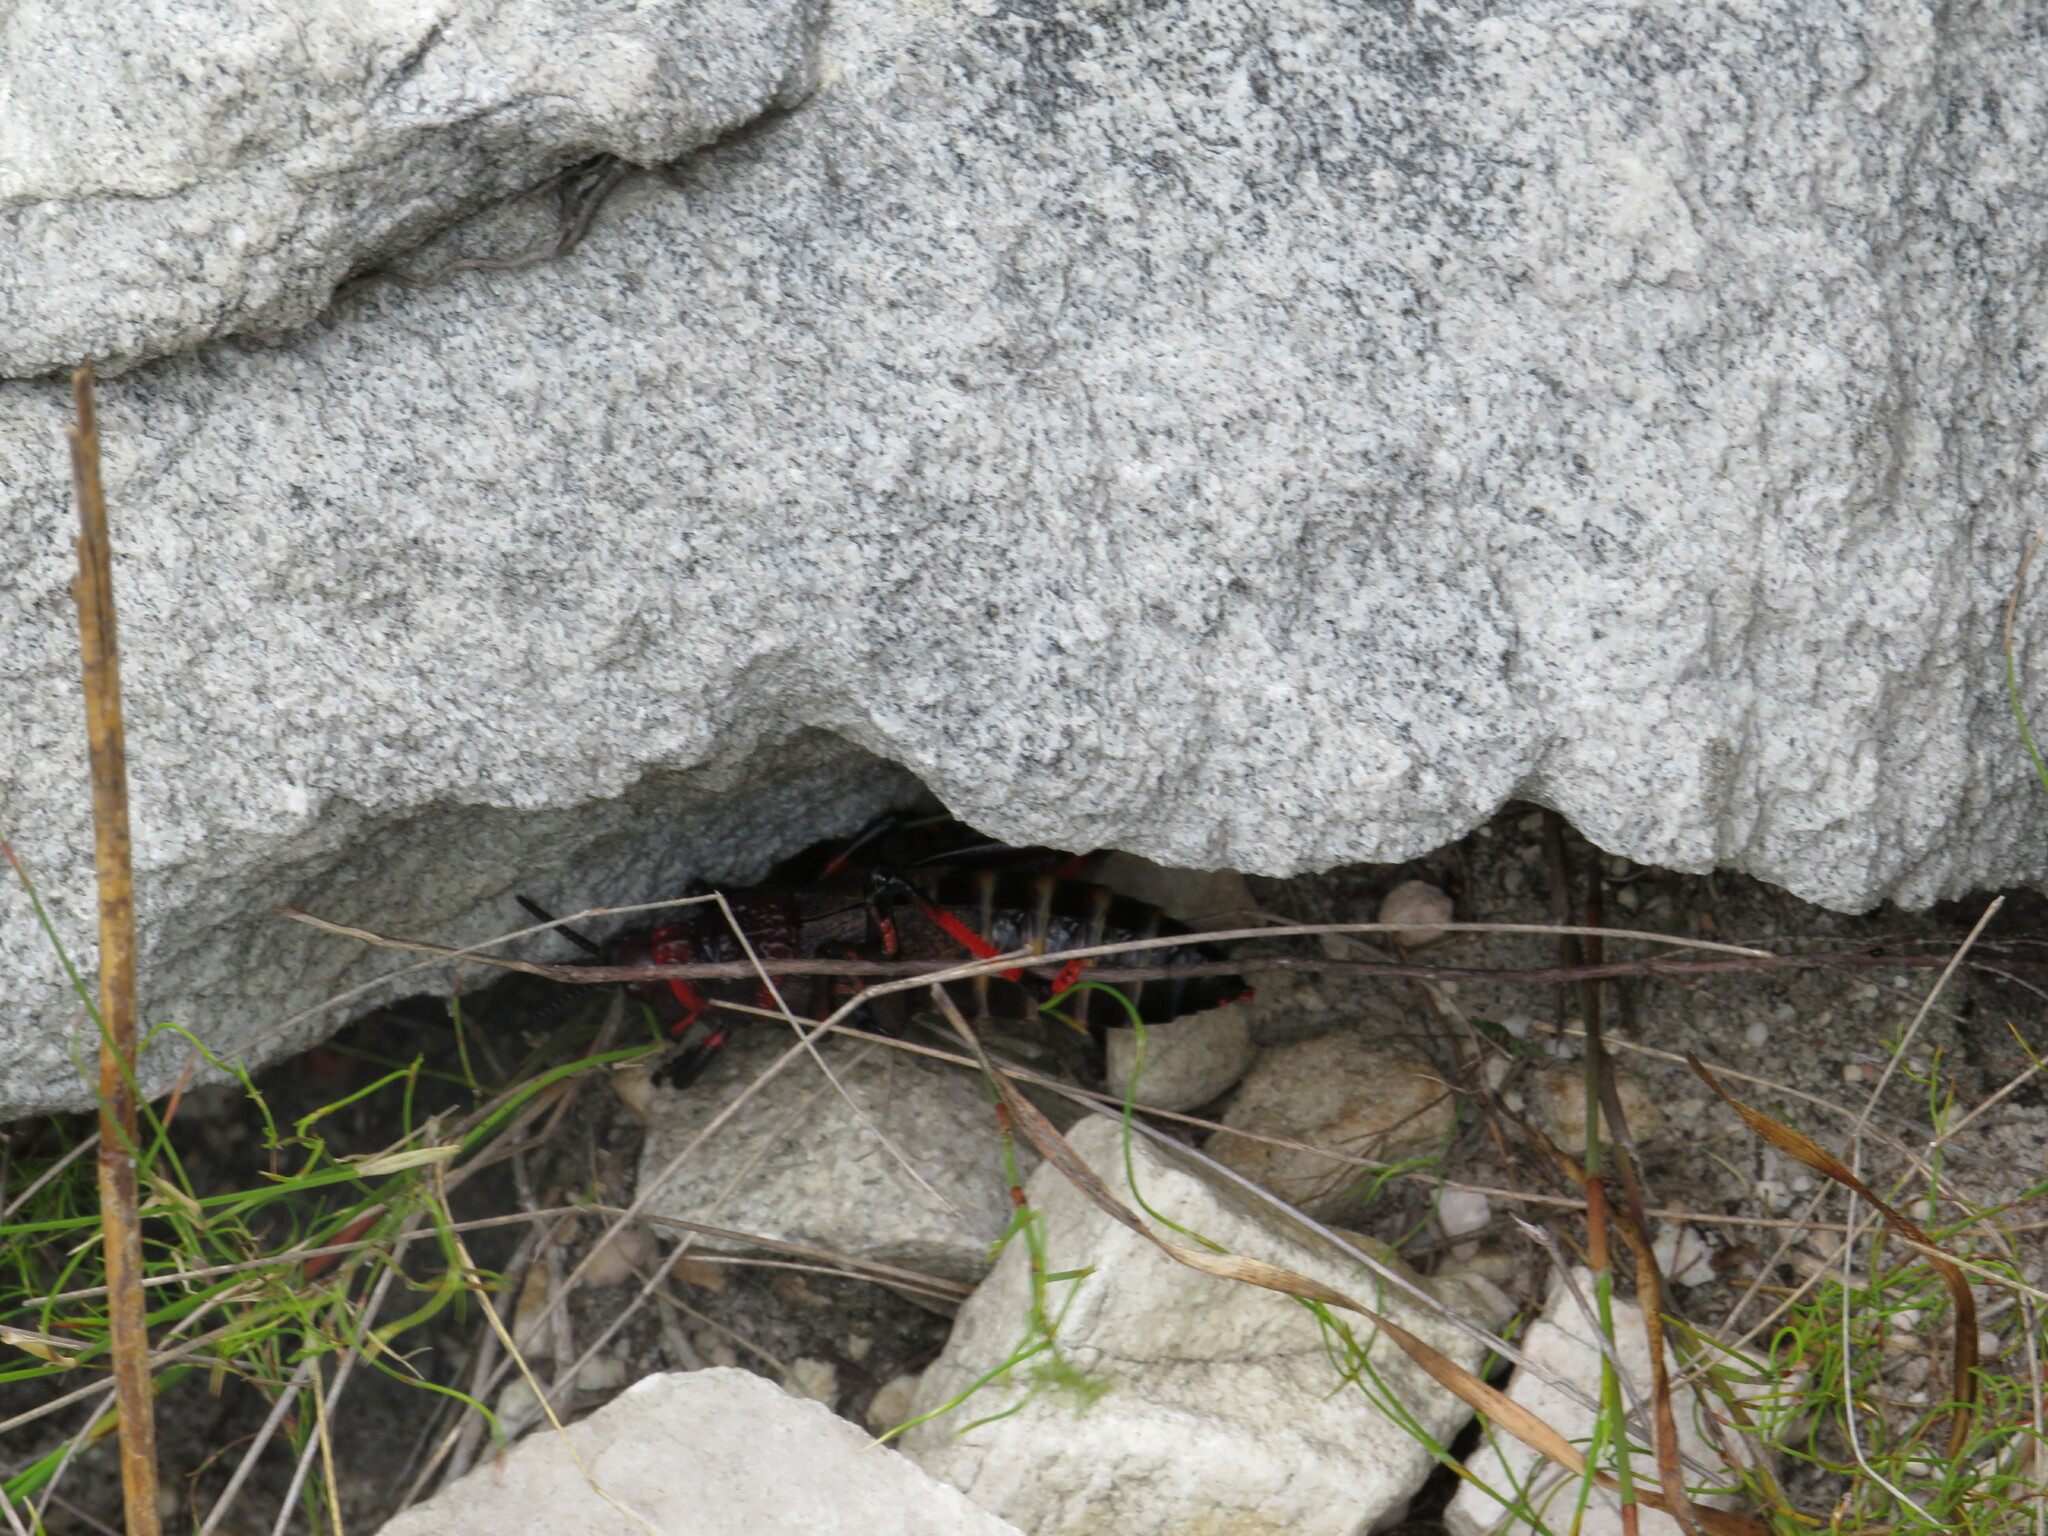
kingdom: Animalia
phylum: Arthropoda
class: Insecta
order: Orthoptera
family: Pyrgomorphidae
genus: Dictyophorus
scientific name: Dictyophorus spumans
